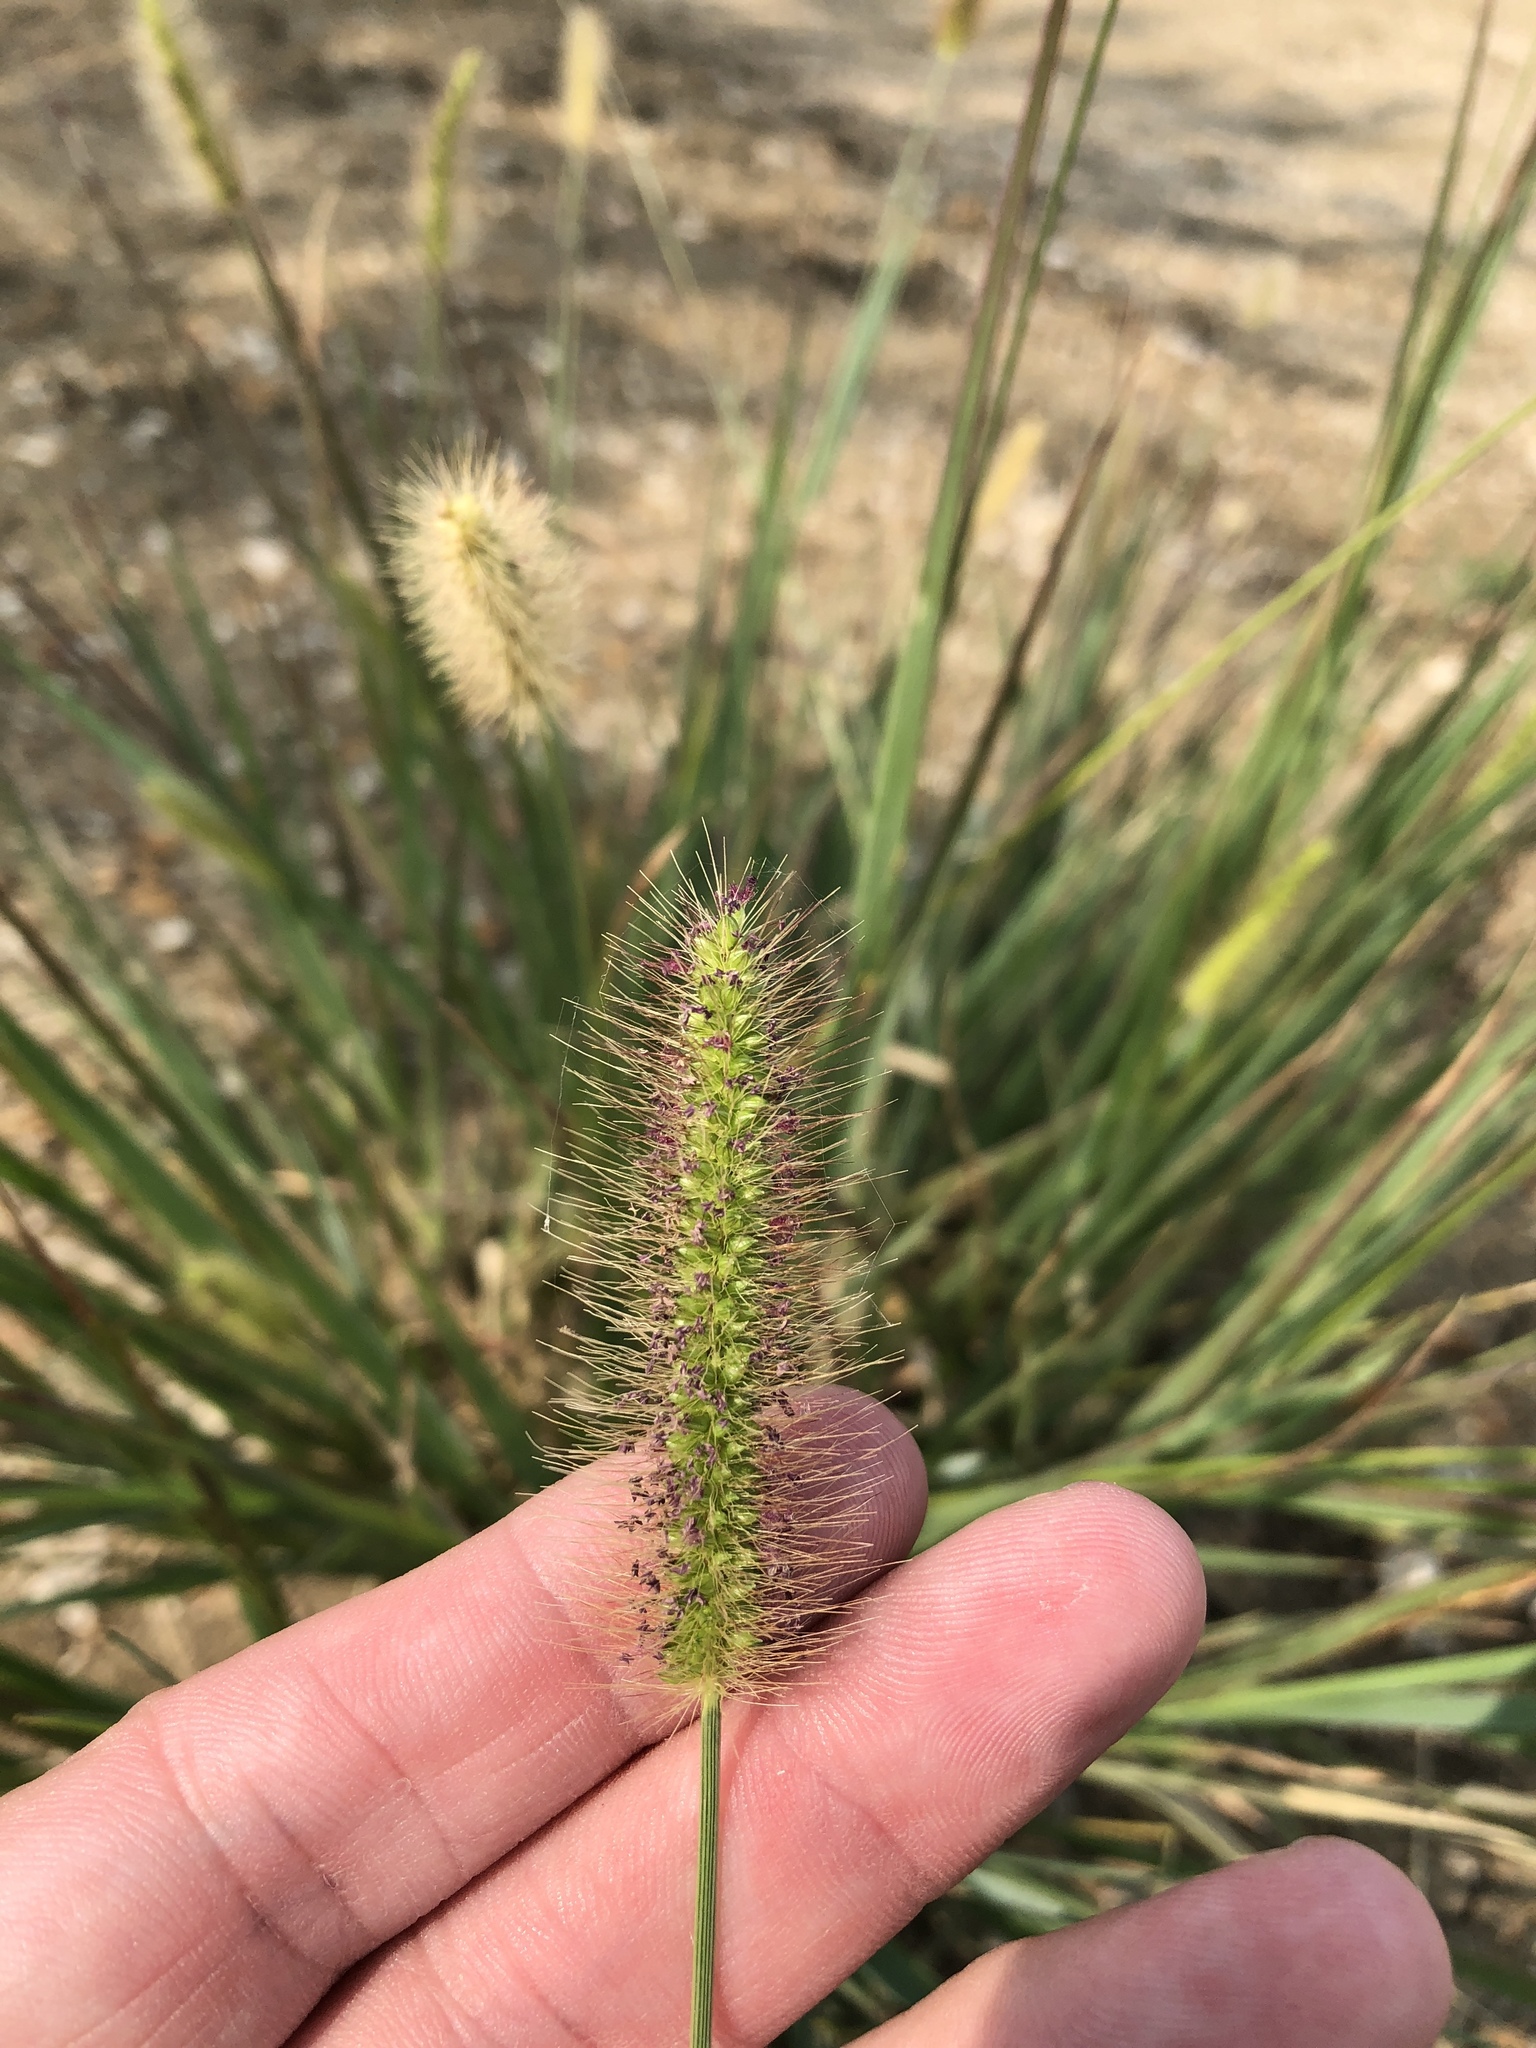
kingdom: Plantae
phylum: Tracheophyta
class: Liliopsida
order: Poales
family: Poaceae
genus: Setaria
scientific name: Setaria parviflora
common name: Knotroot bristle-grass
